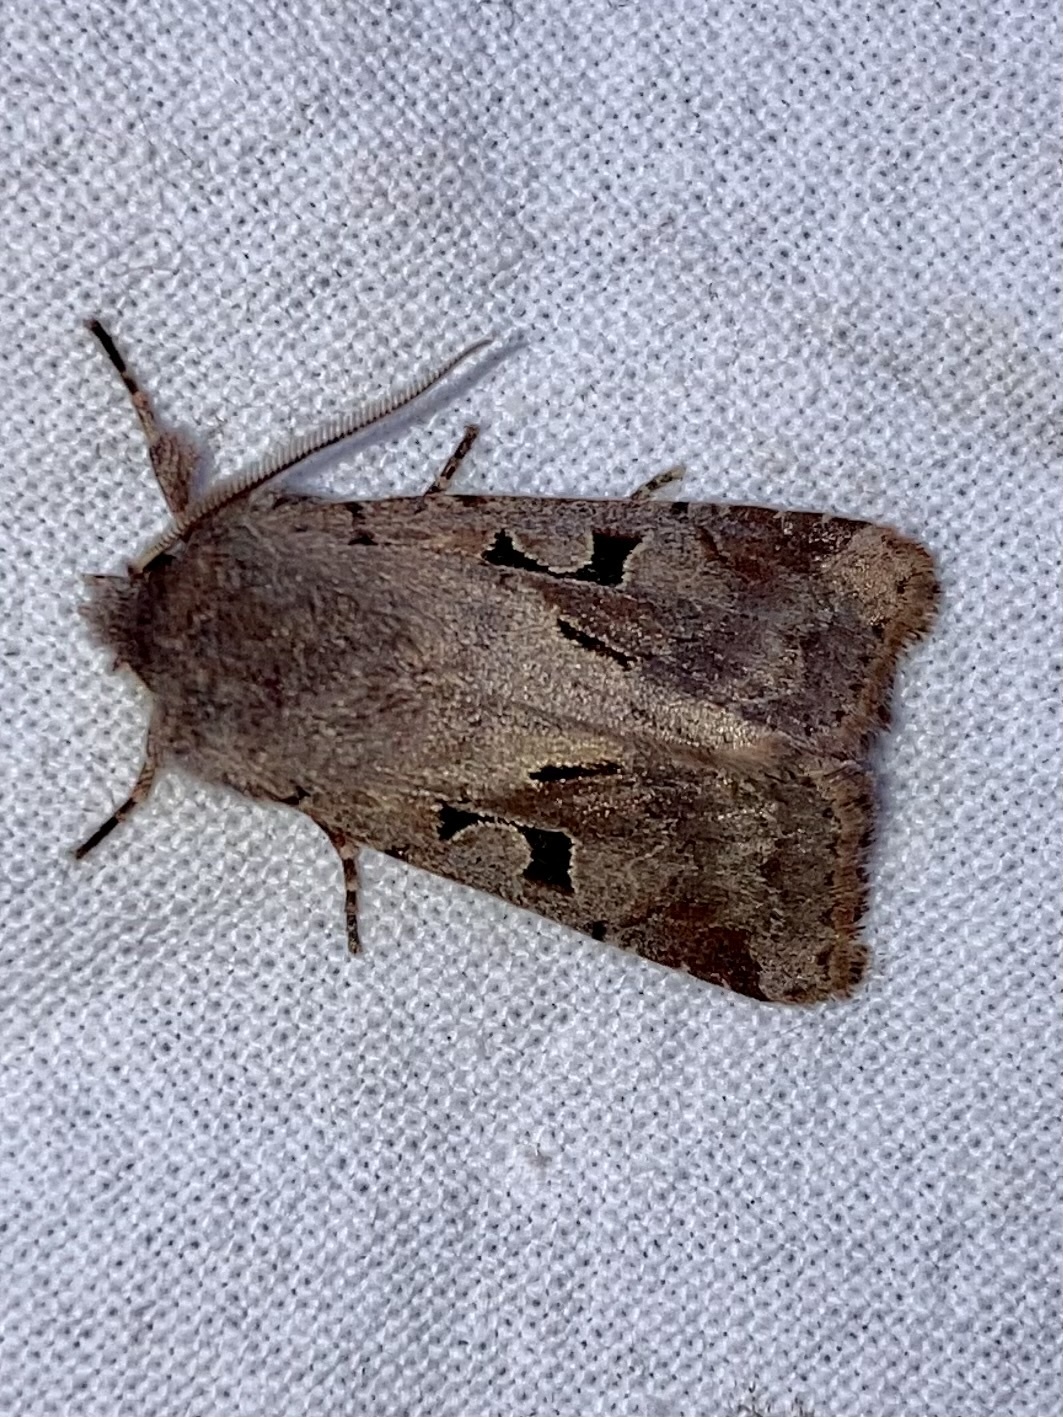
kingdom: Animalia
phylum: Arthropoda
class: Insecta
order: Lepidoptera
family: Noctuidae
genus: Orthosia
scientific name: Orthosia gothica
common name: Hebrew character
